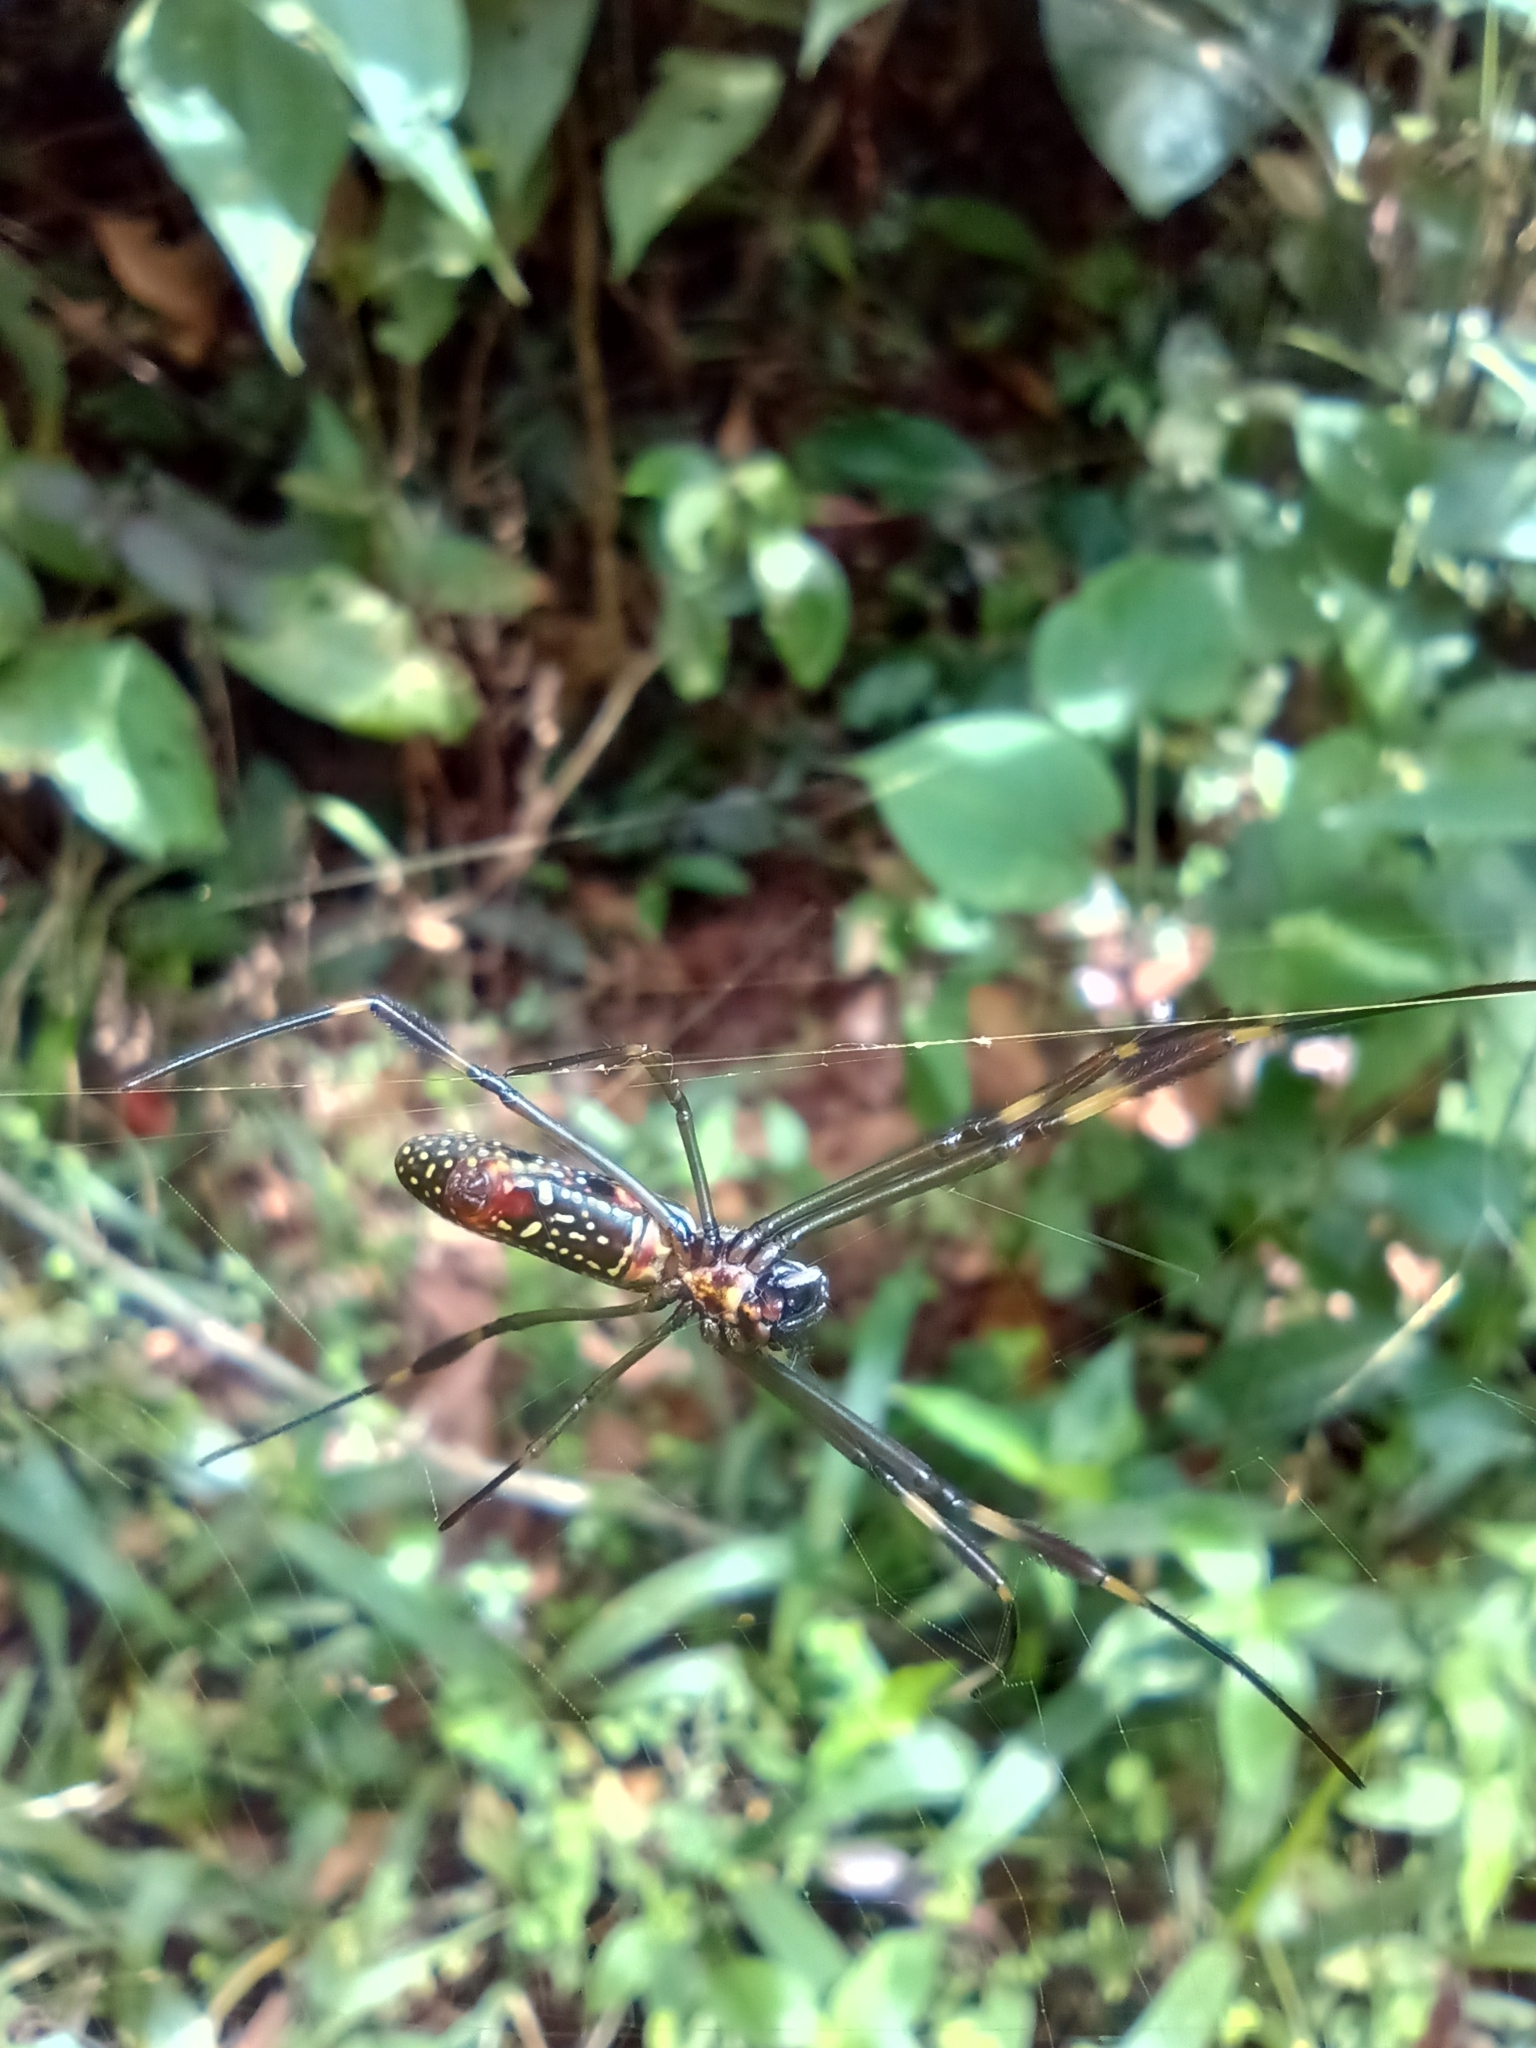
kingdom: Animalia
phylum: Arthropoda
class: Arachnida
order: Araneae
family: Araneidae
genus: Trichonephila
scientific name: Trichonephila clavipes
